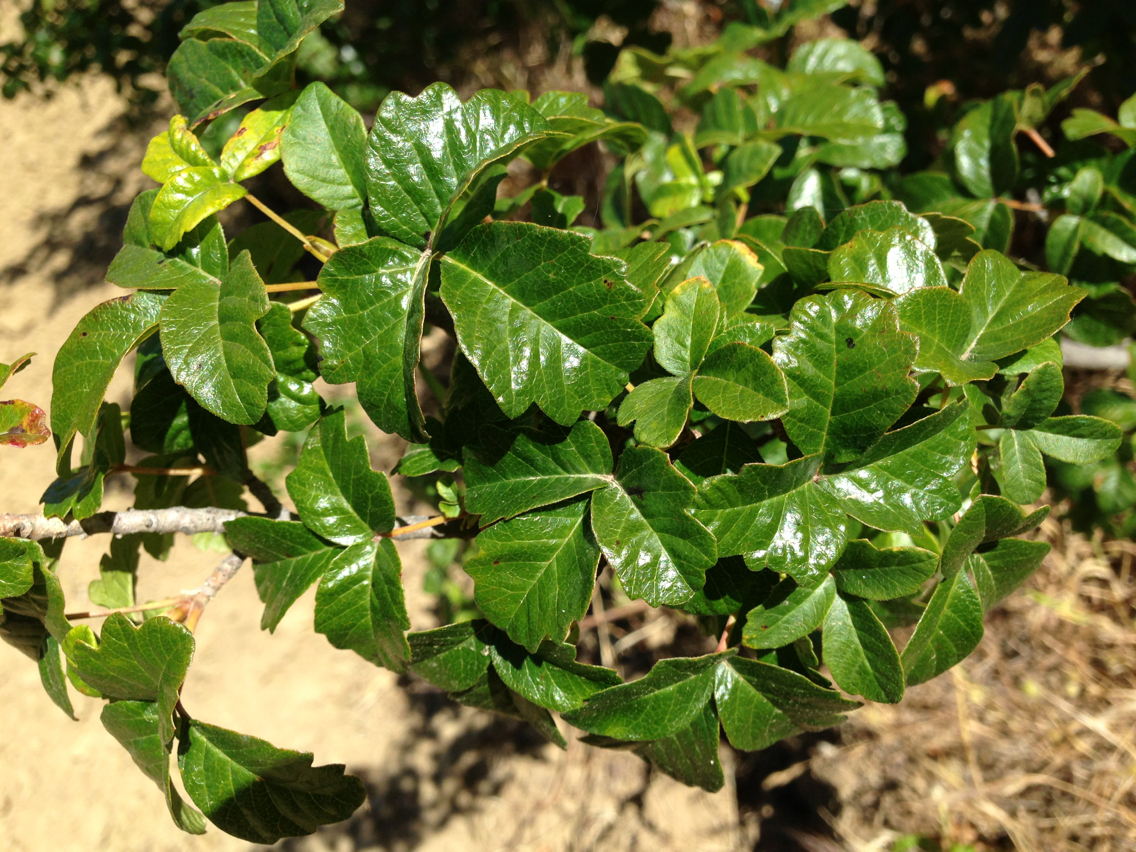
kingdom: Plantae
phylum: Tracheophyta
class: Magnoliopsida
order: Sapindales
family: Anacardiaceae
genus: Toxicodendron
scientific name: Toxicodendron diversilobum
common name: Pacific poison-oak
